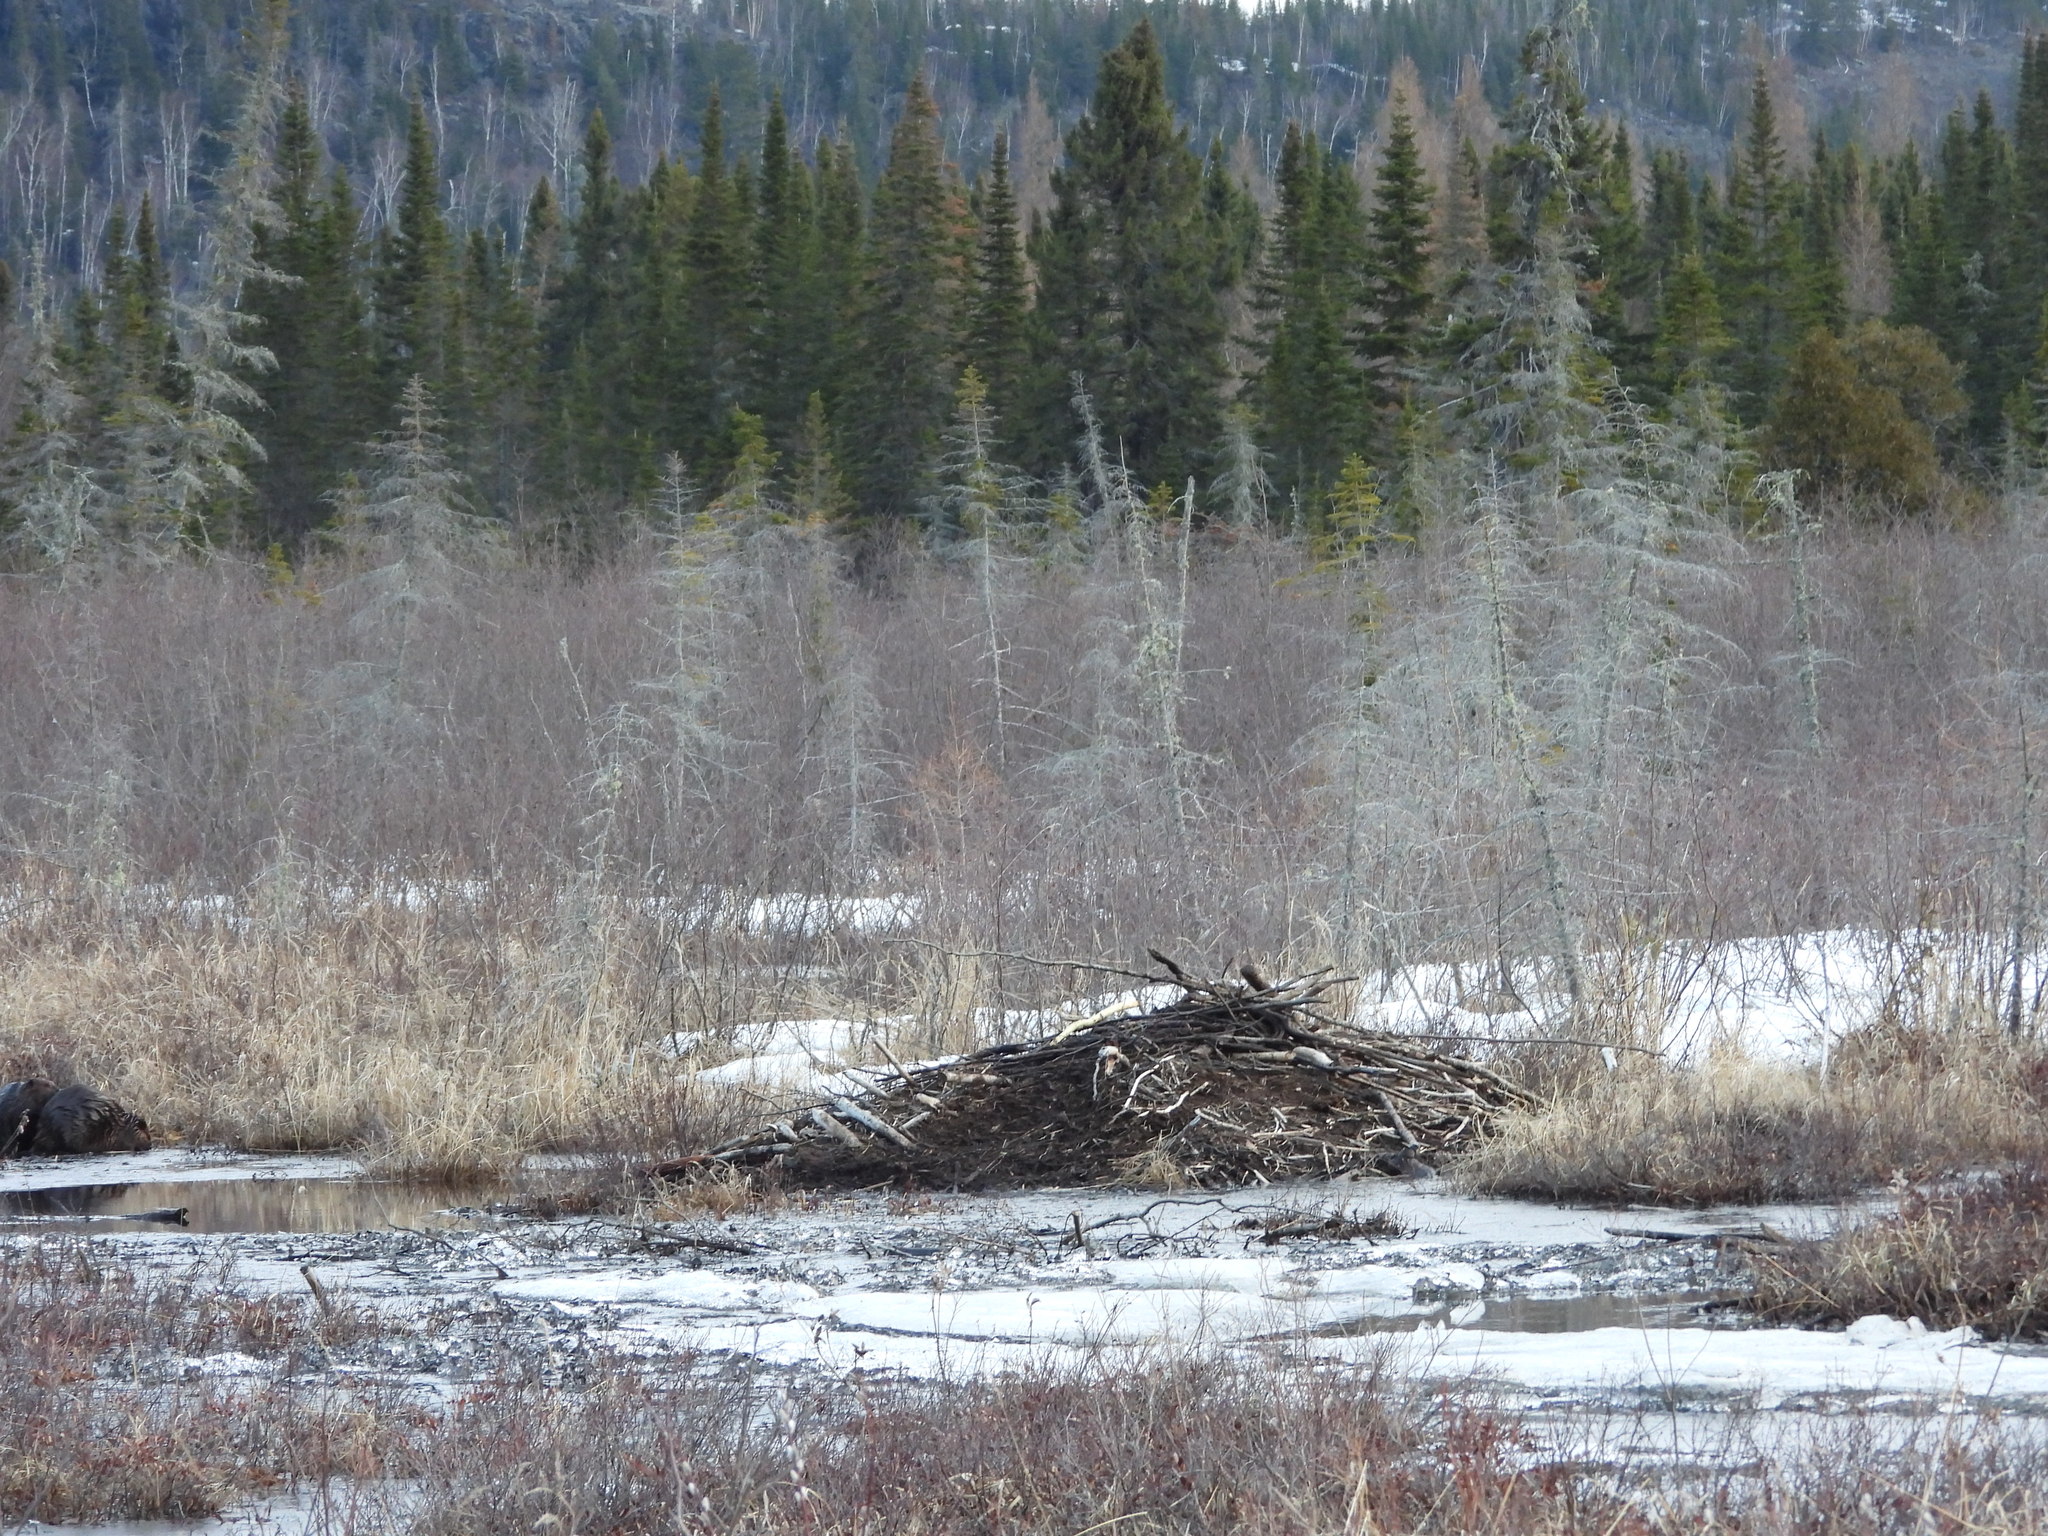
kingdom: Animalia
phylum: Chordata
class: Mammalia
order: Rodentia
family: Castoridae
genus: Castor
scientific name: Castor canadensis
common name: American beaver
